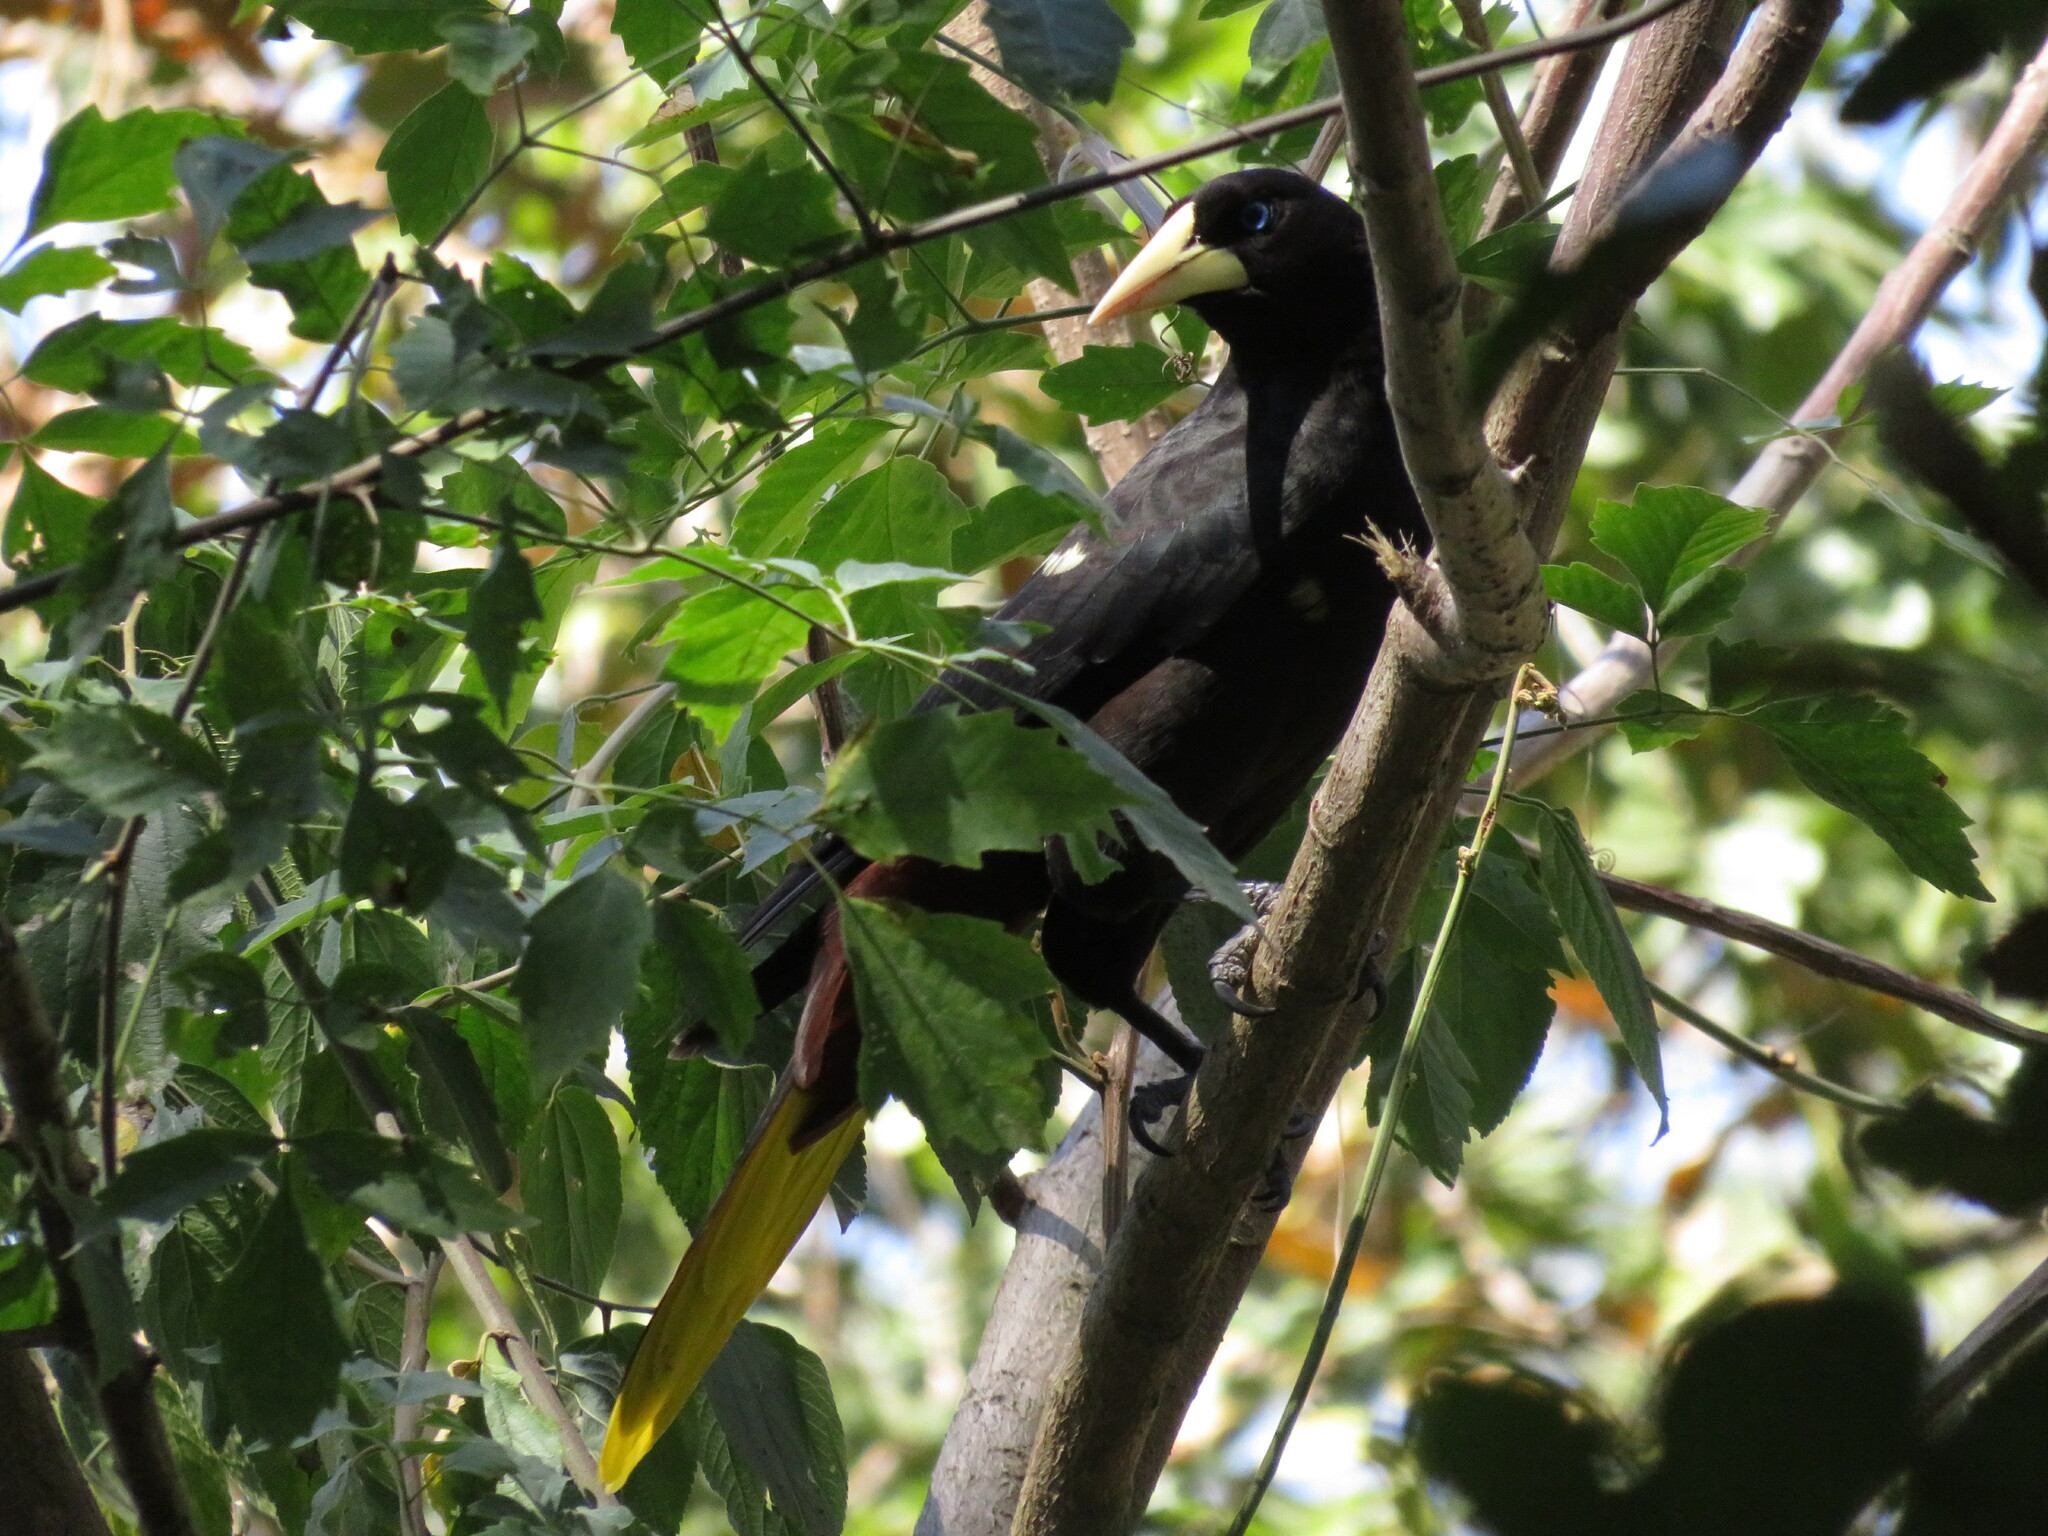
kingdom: Animalia
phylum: Chordata
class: Aves
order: Passeriformes
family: Icteridae
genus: Psarocolius
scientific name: Psarocolius decumanus
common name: Crested oropendola
